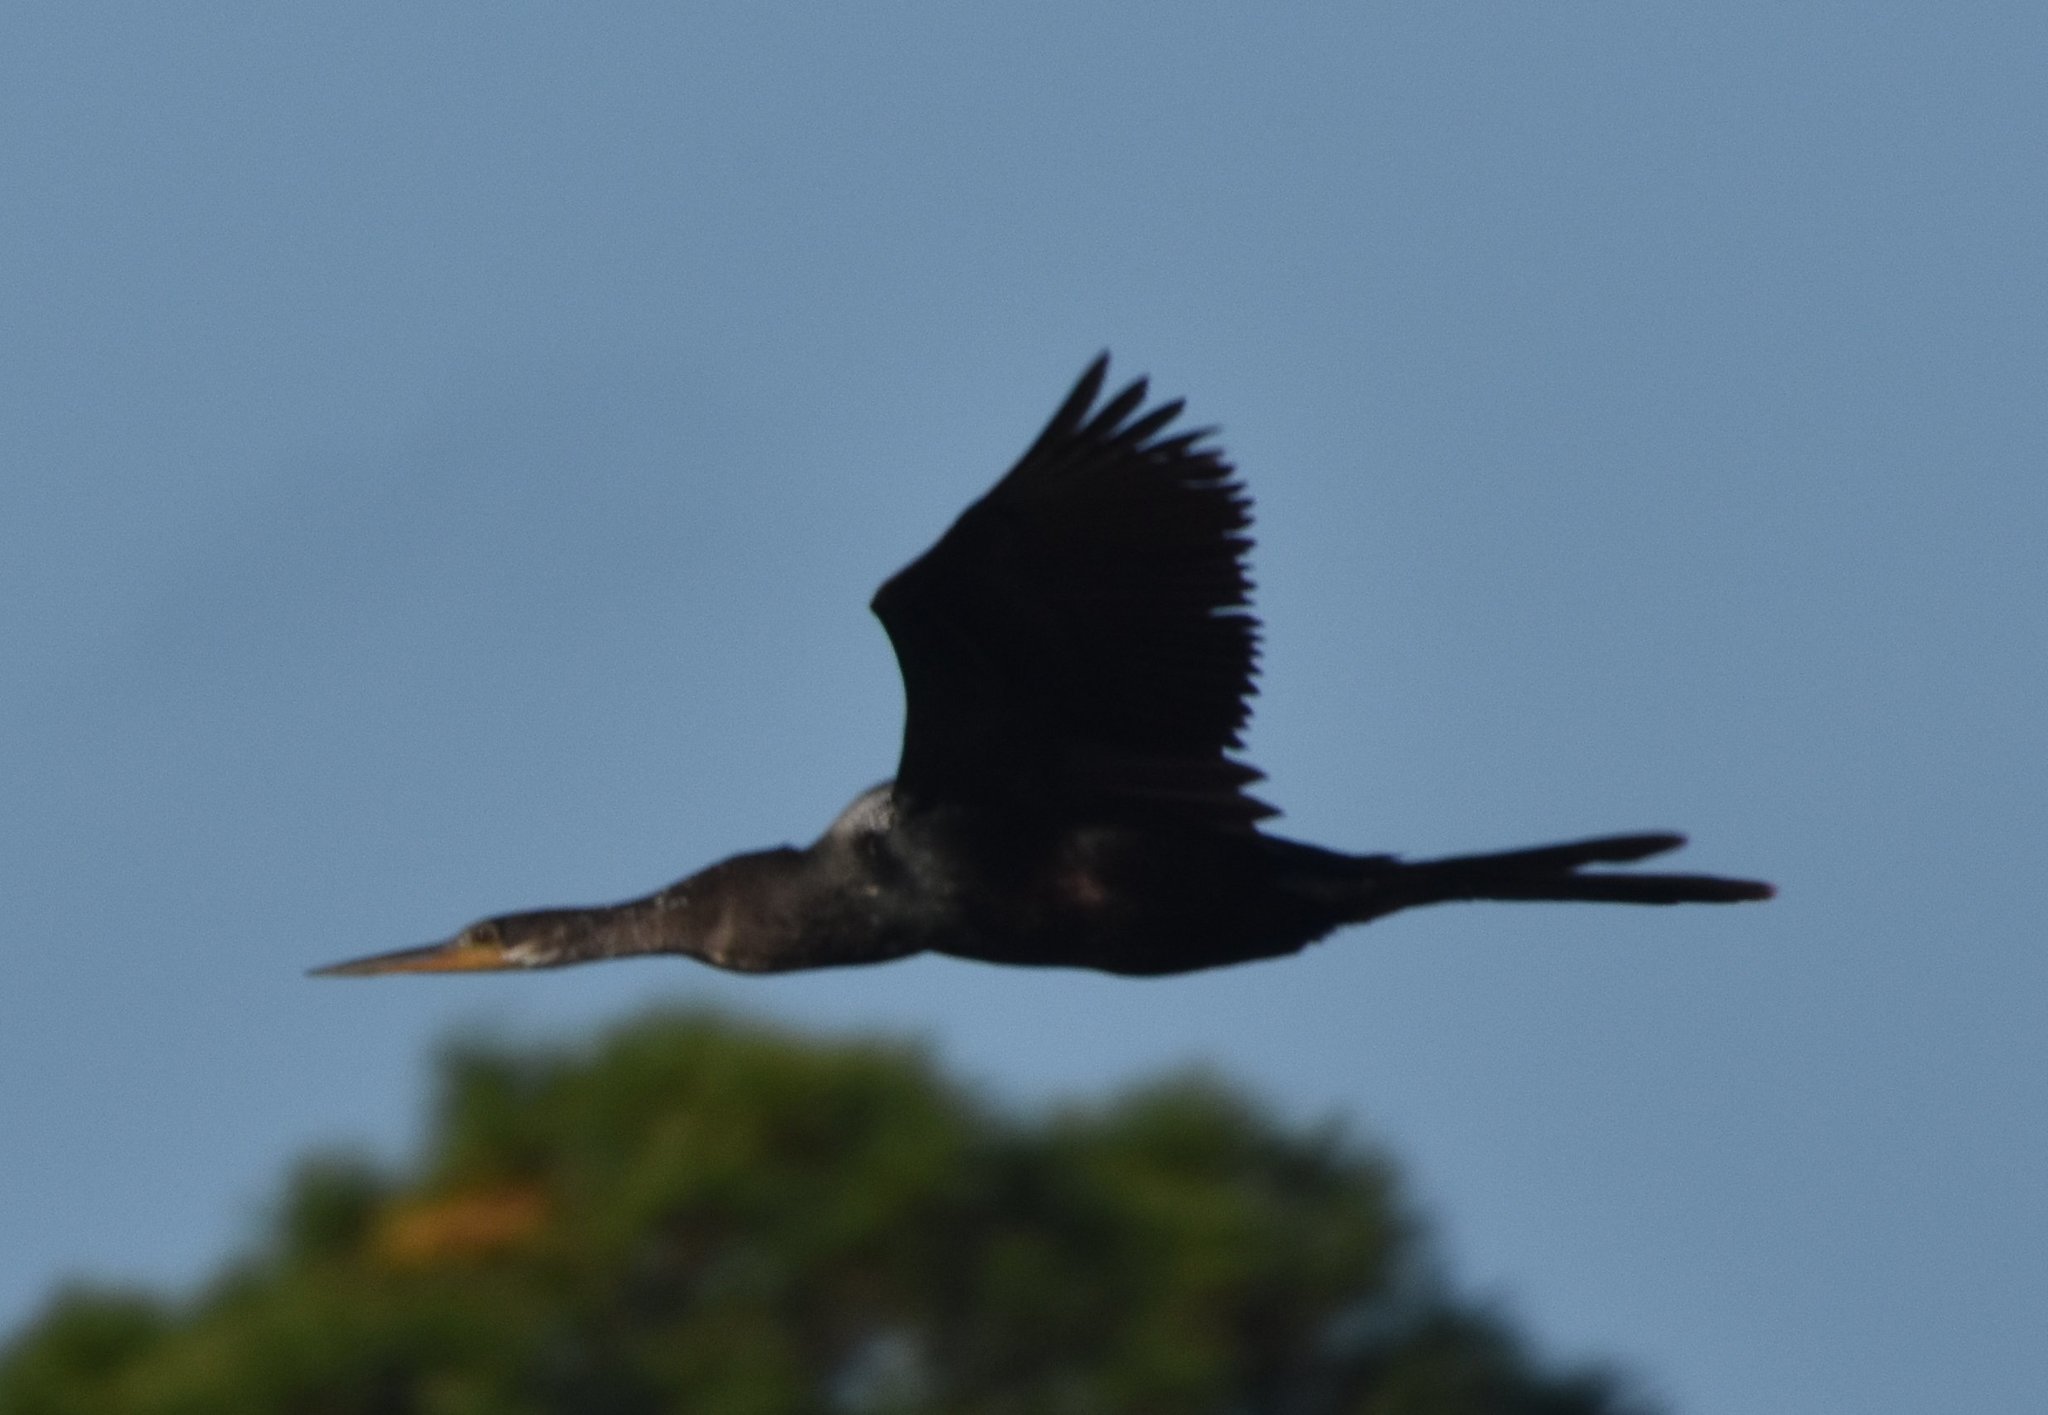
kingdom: Animalia
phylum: Chordata
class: Aves
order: Suliformes
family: Anhingidae
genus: Anhinga
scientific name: Anhinga anhinga
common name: Anhinga
